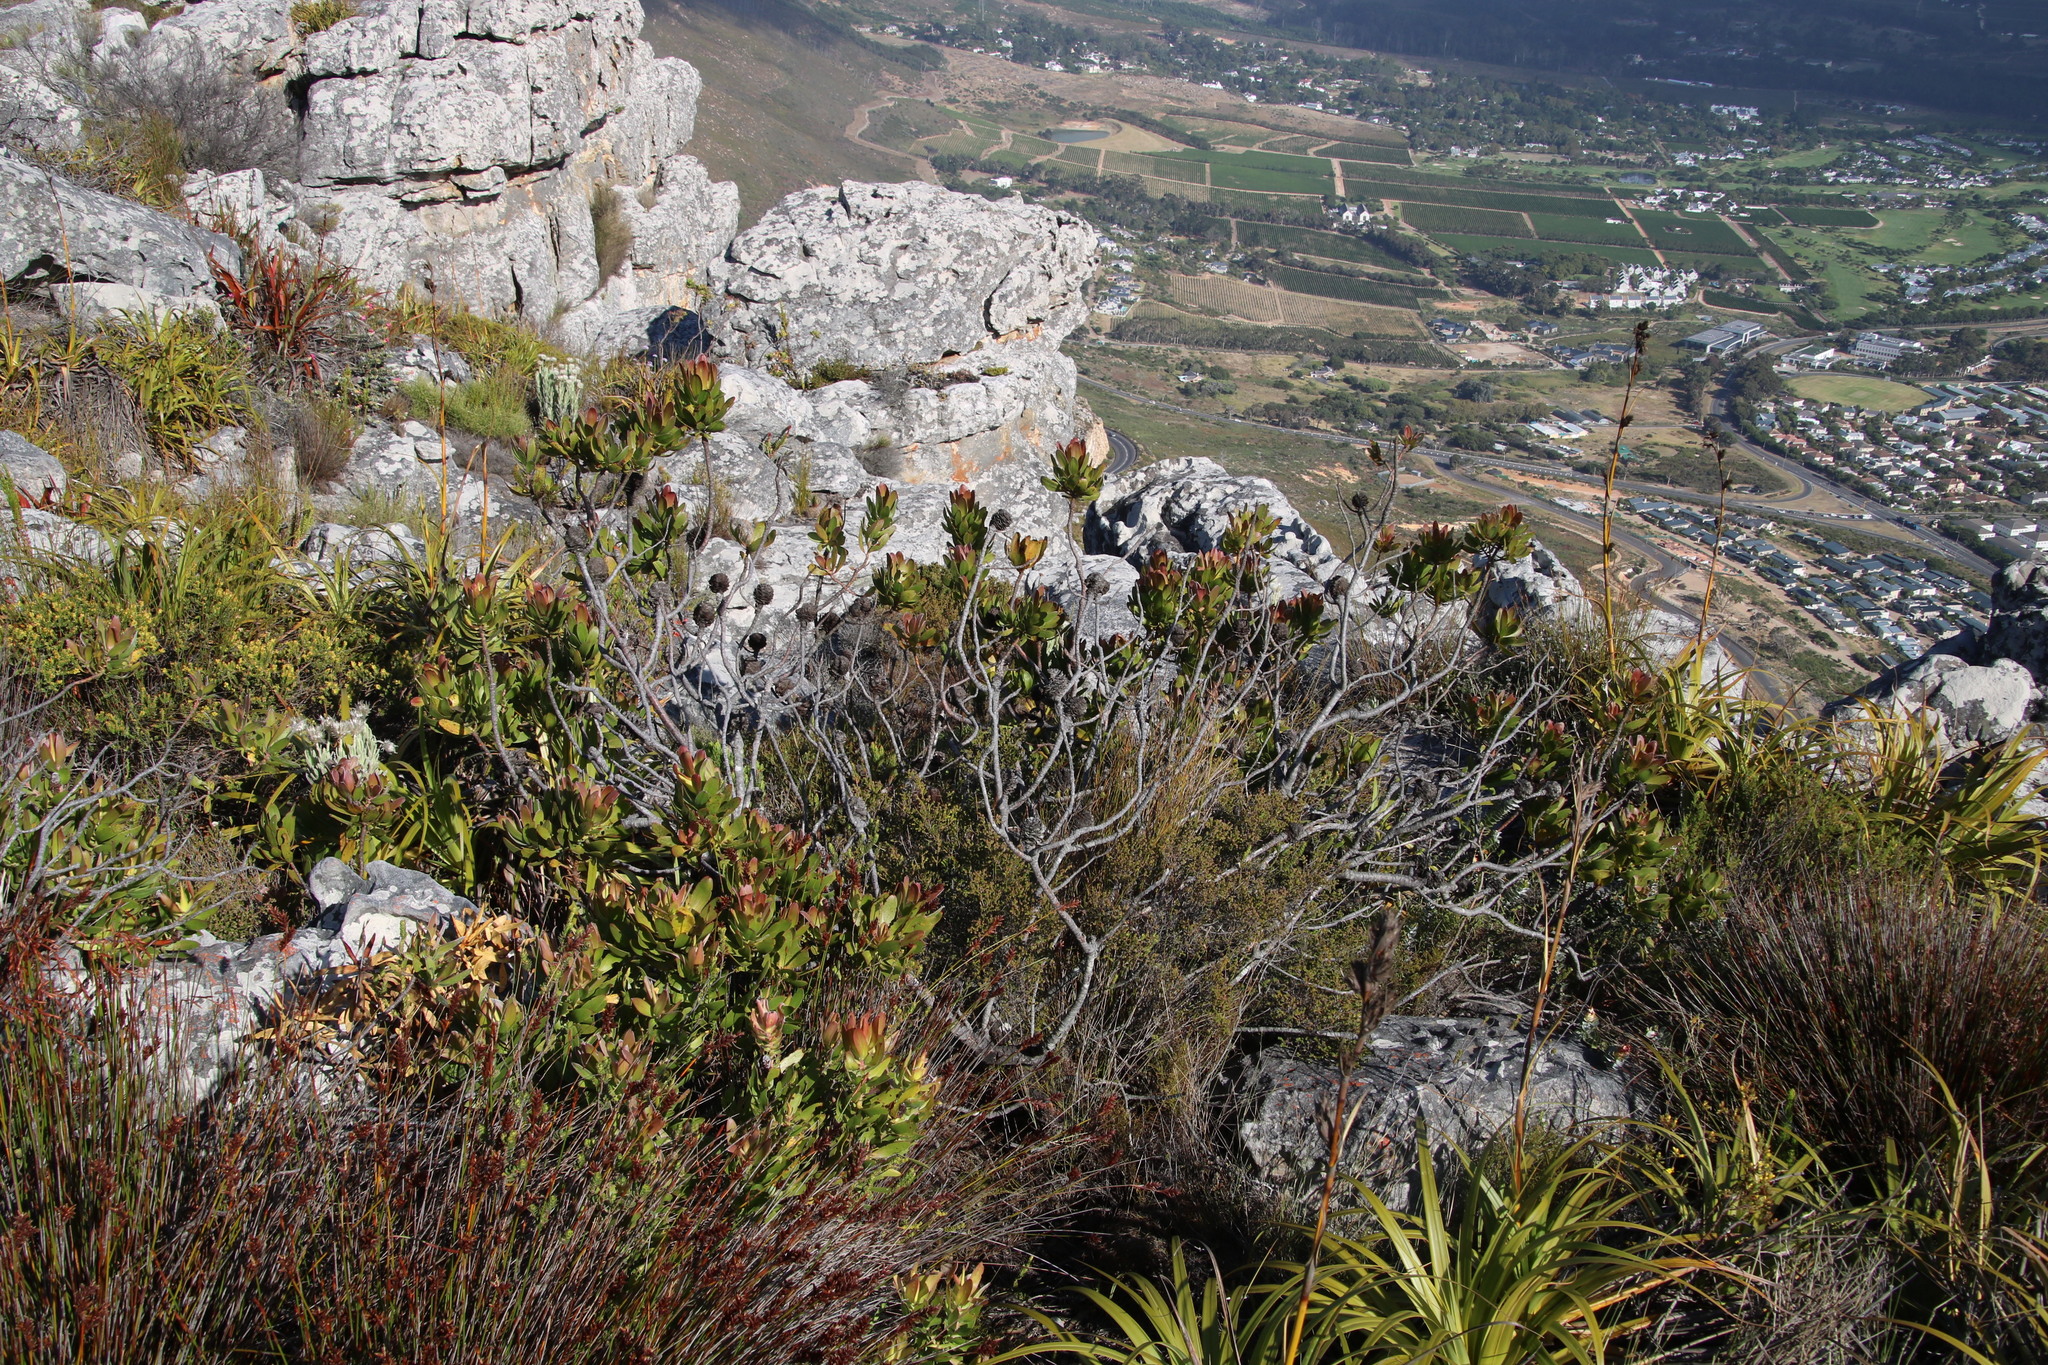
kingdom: Plantae
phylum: Tracheophyta
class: Magnoliopsida
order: Proteales
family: Proteaceae
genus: Leucadendron
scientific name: Leucadendron laureolum
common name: Golden sunshinebush
